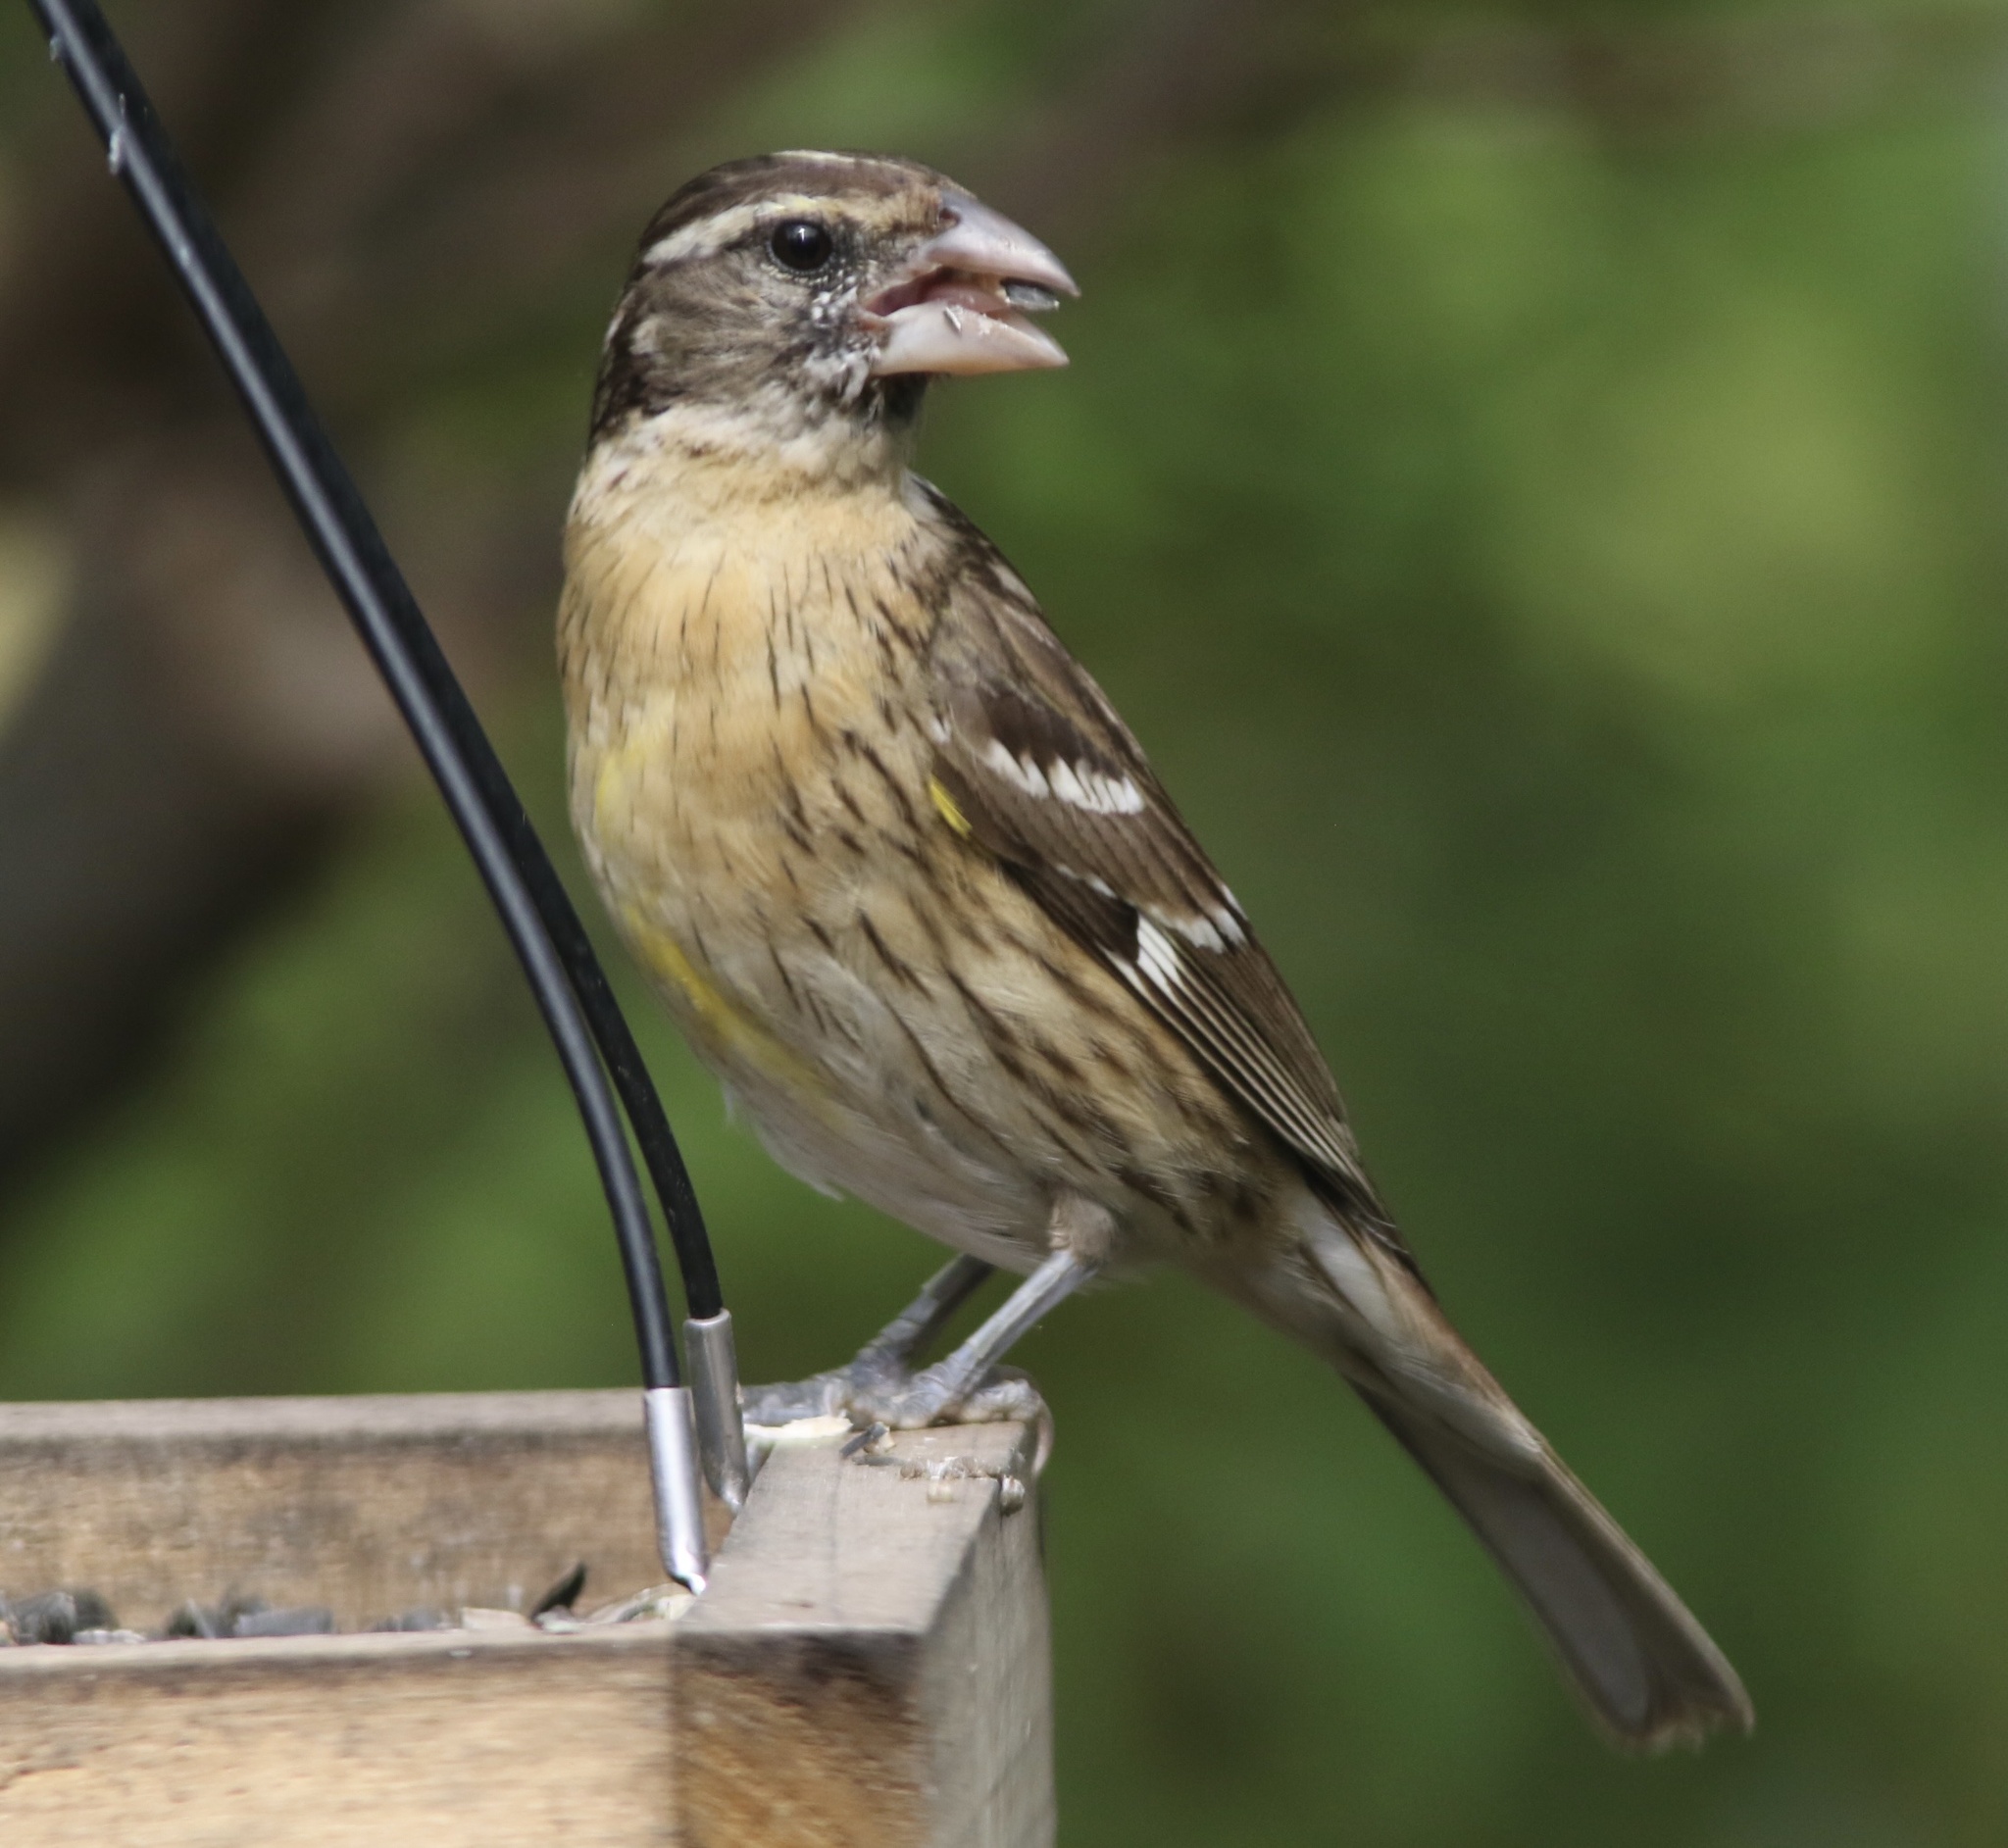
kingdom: Animalia
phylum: Chordata
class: Aves
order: Passeriformes
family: Cardinalidae
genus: Pheucticus
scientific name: Pheucticus melanocephalus
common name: Black-headed grosbeak
